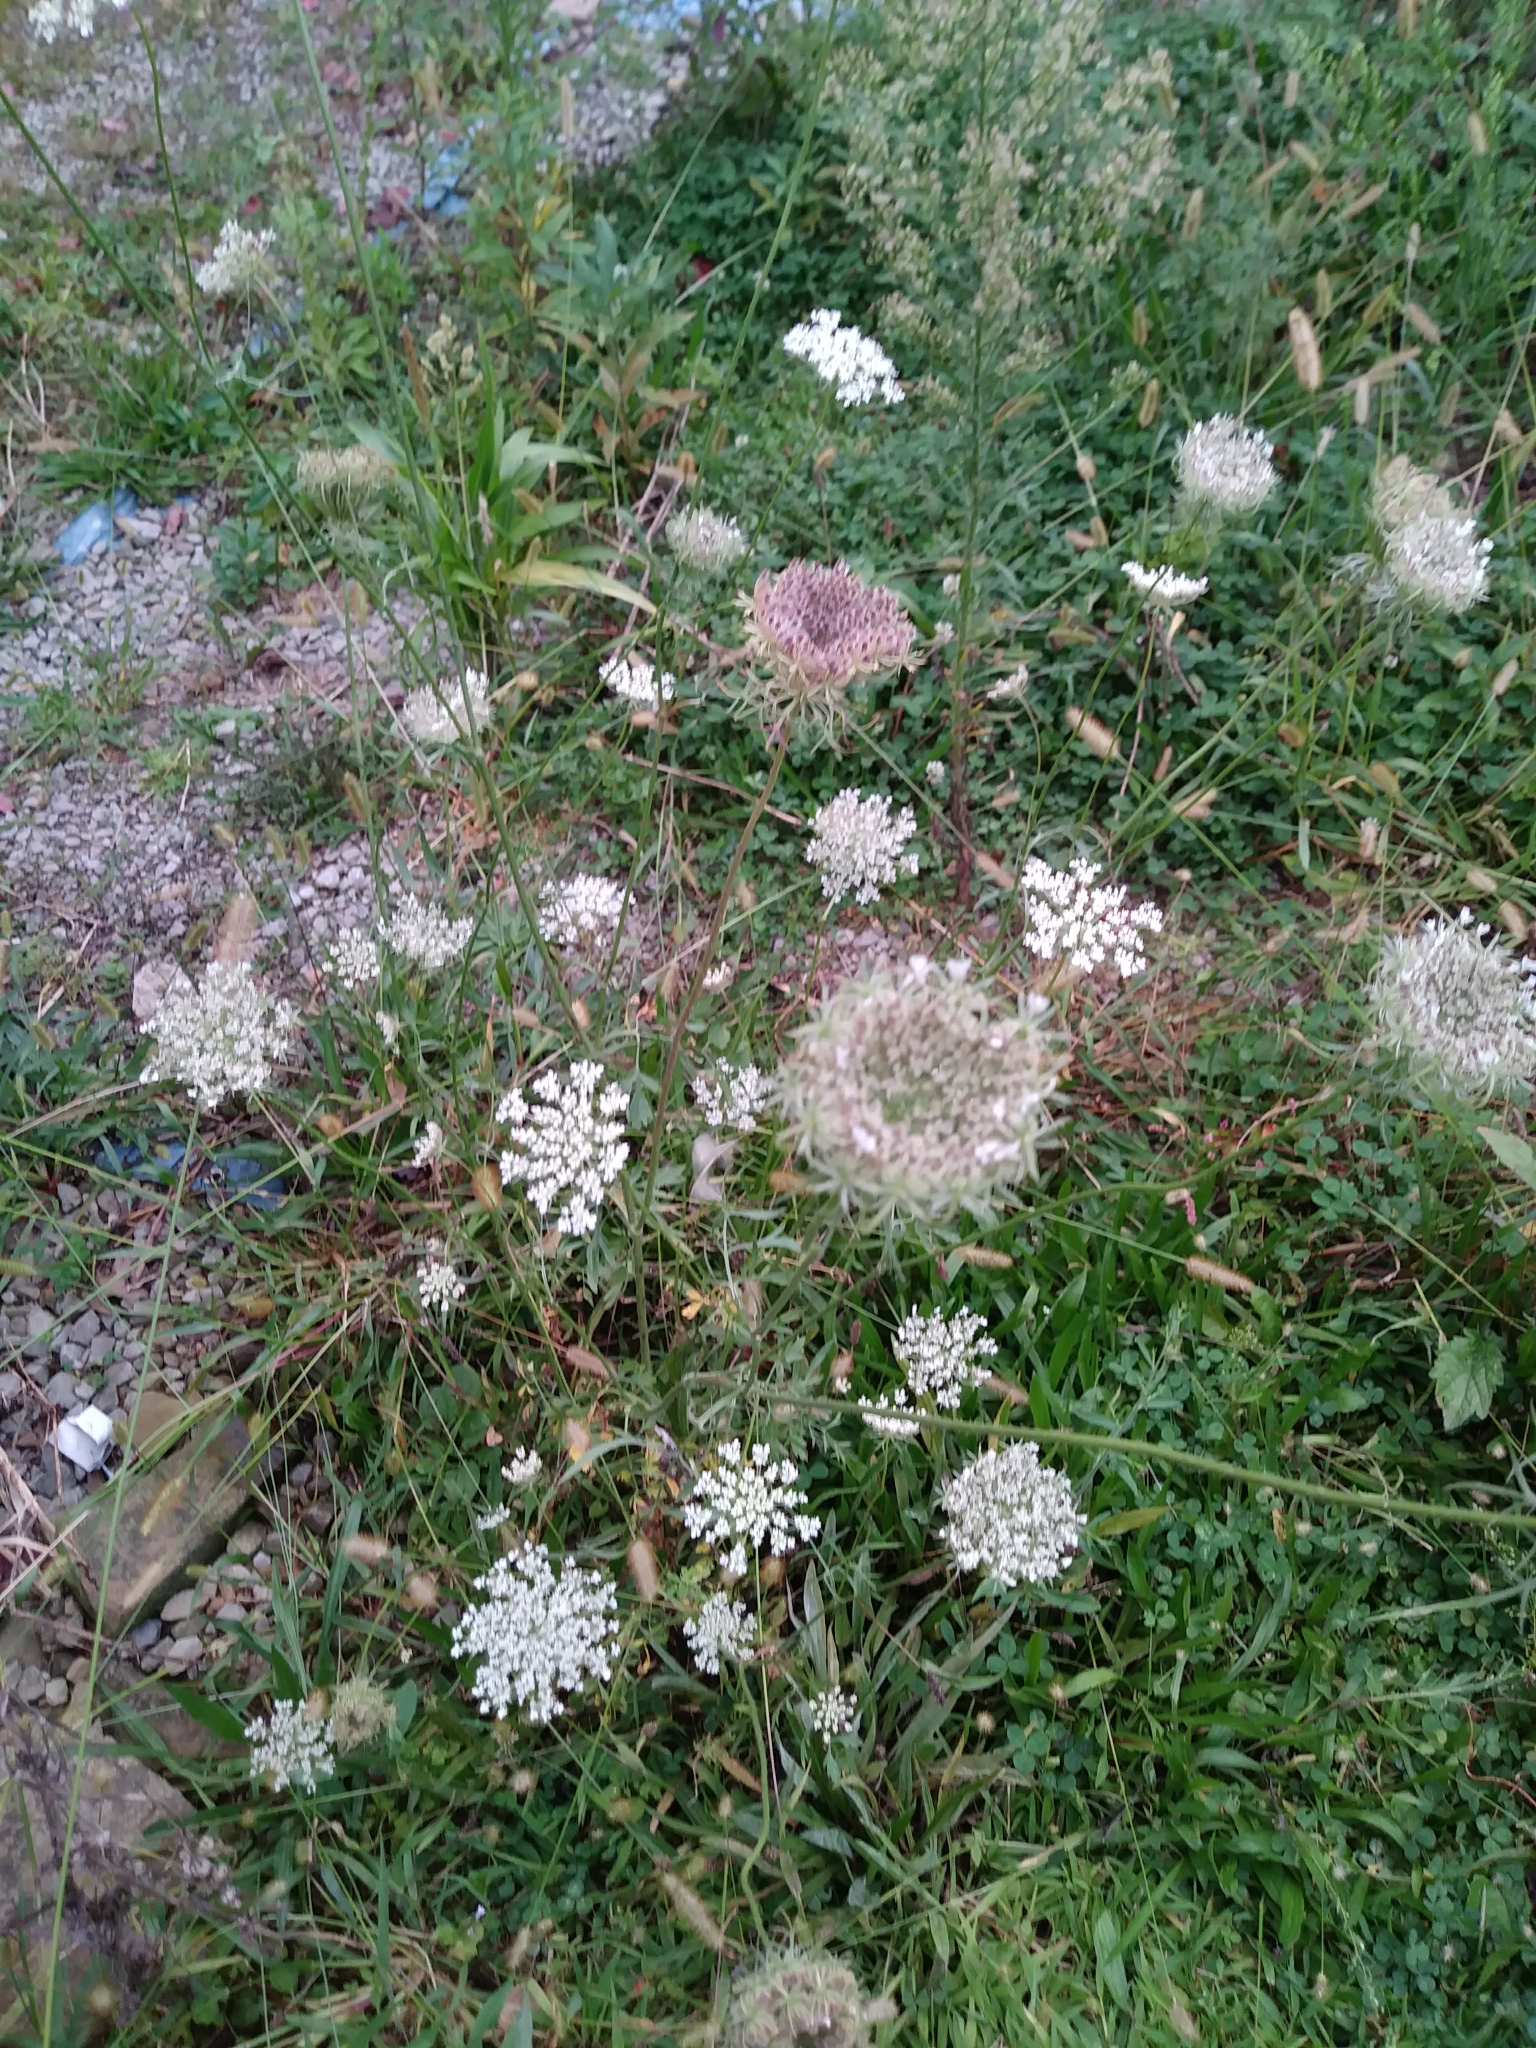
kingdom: Plantae
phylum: Tracheophyta
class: Magnoliopsida
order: Apiales
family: Apiaceae
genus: Daucus
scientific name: Daucus carota
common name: Wild carrot
